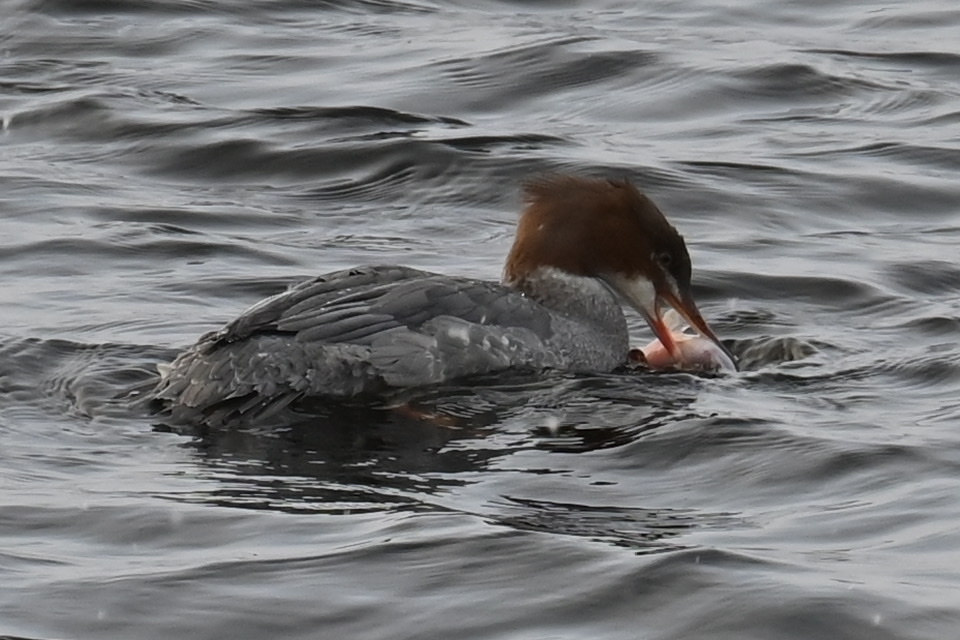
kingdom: Animalia
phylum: Chordata
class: Aves
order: Anseriformes
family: Anatidae
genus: Mergus
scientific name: Mergus merganser
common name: Common merganser
